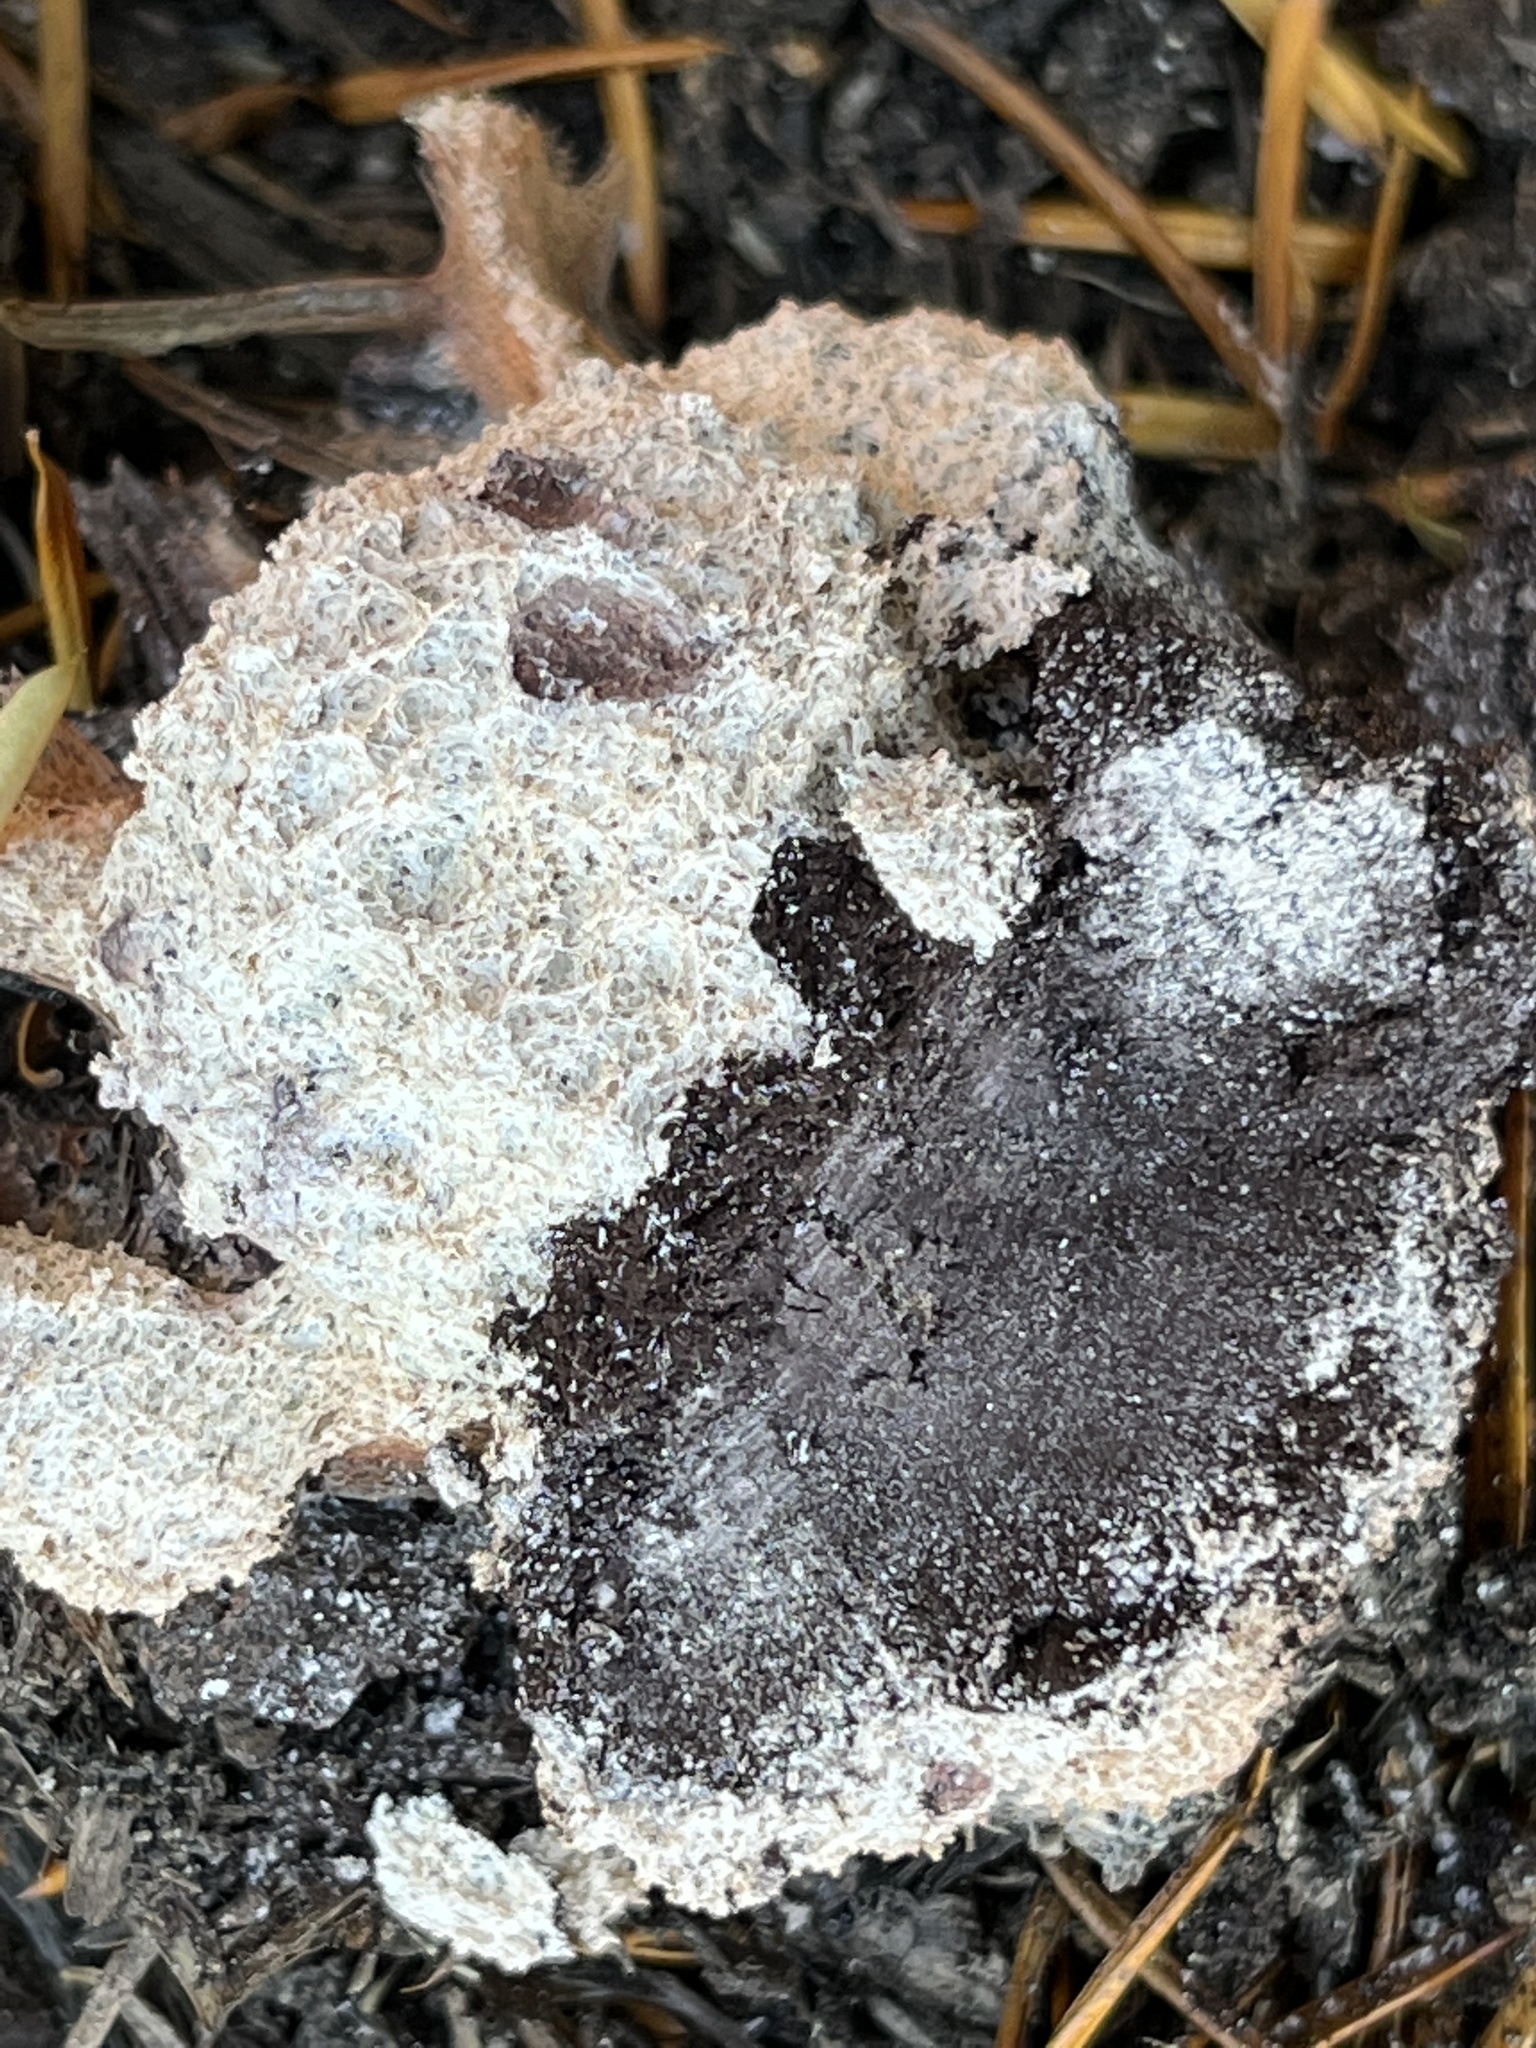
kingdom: Protozoa
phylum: Mycetozoa
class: Myxomycetes
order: Physarales
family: Physaraceae
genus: Fuligo
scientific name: Fuligo septica
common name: Dog vomit slime mold
